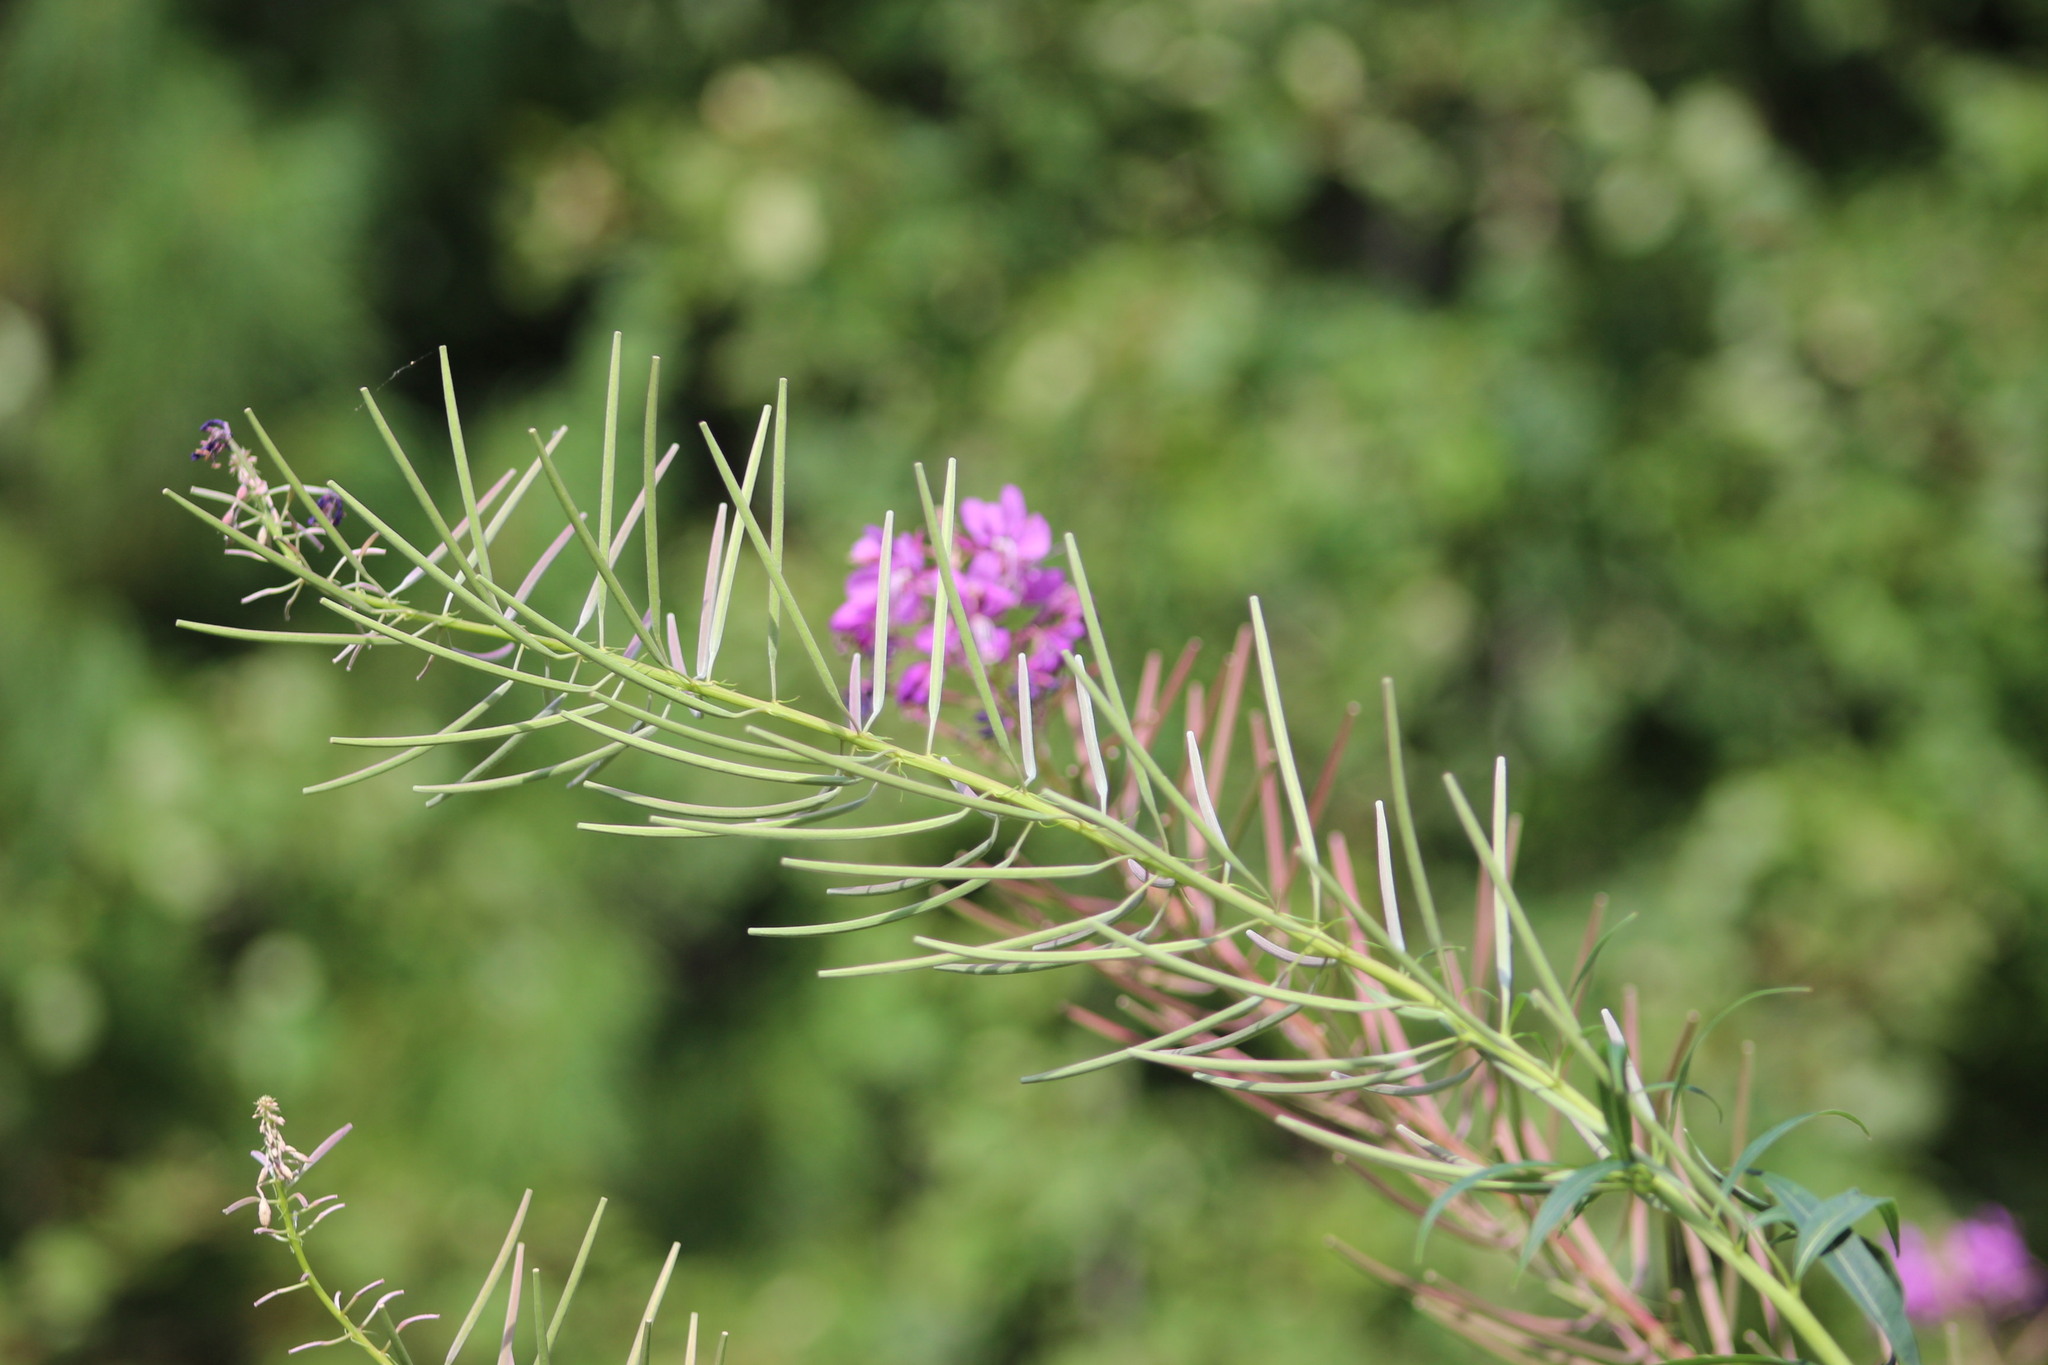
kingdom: Plantae
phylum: Tracheophyta
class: Magnoliopsida
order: Myrtales
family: Onagraceae
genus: Chamaenerion
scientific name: Chamaenerion angustifolium
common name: Fireweed
